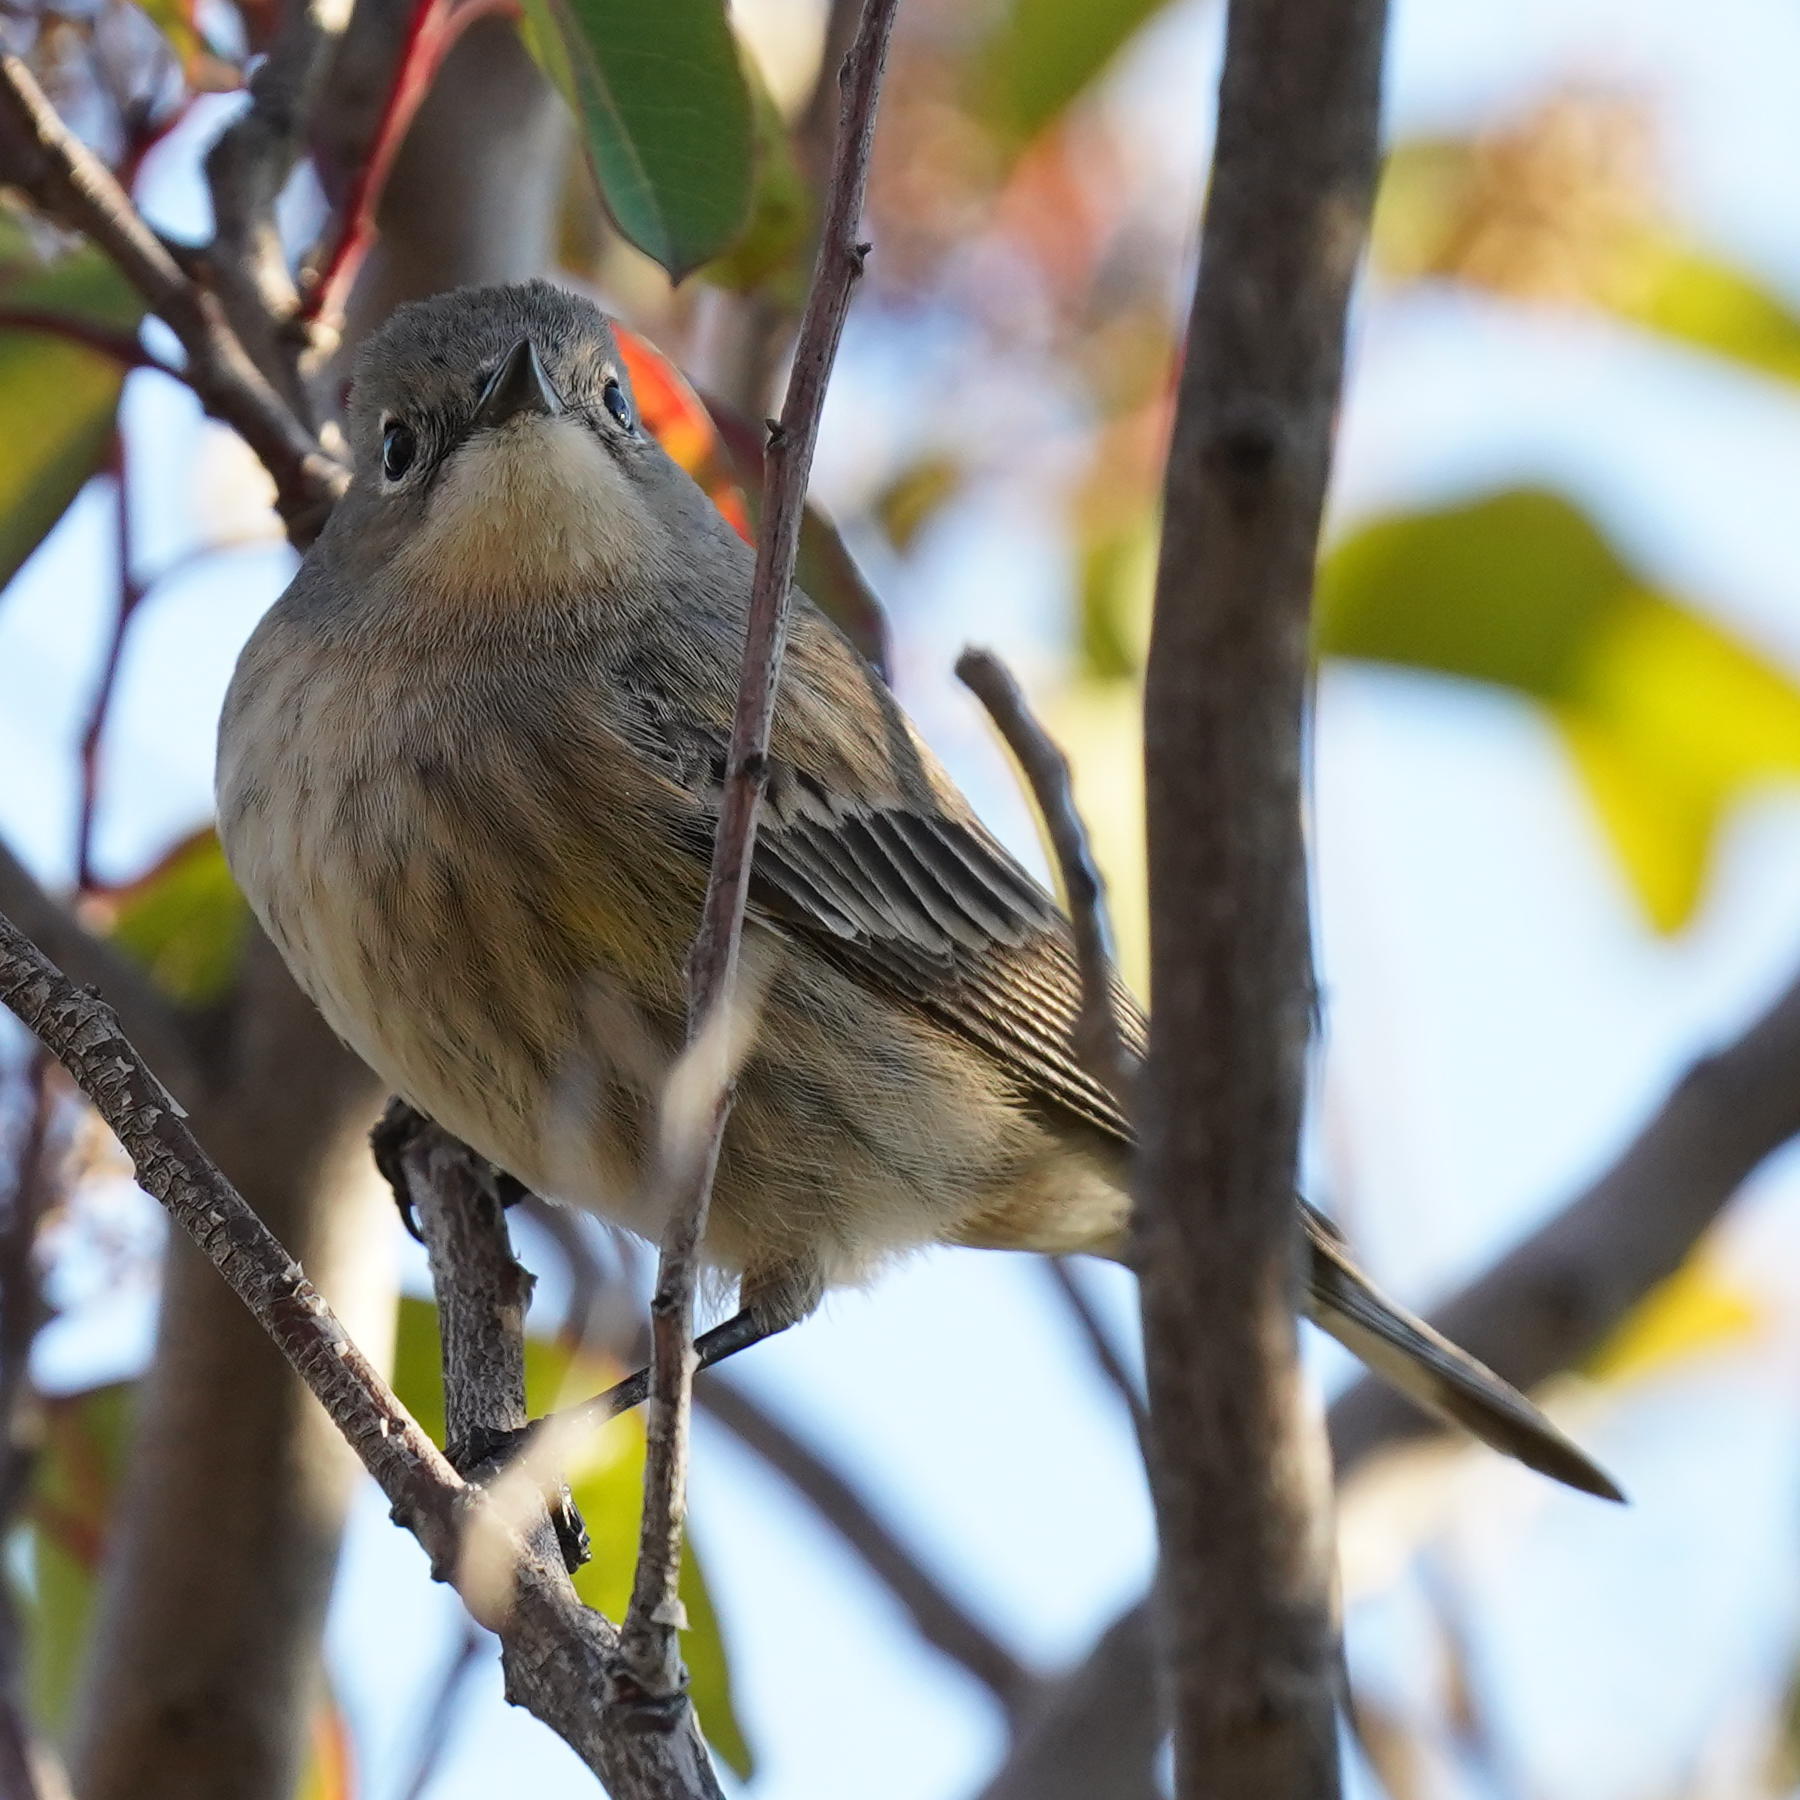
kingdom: Animalia
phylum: Chordata
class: Aves
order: Passeriformes
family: Parulidae
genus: Setophaga
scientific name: Setophaga coronata
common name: Myrtle warbler
